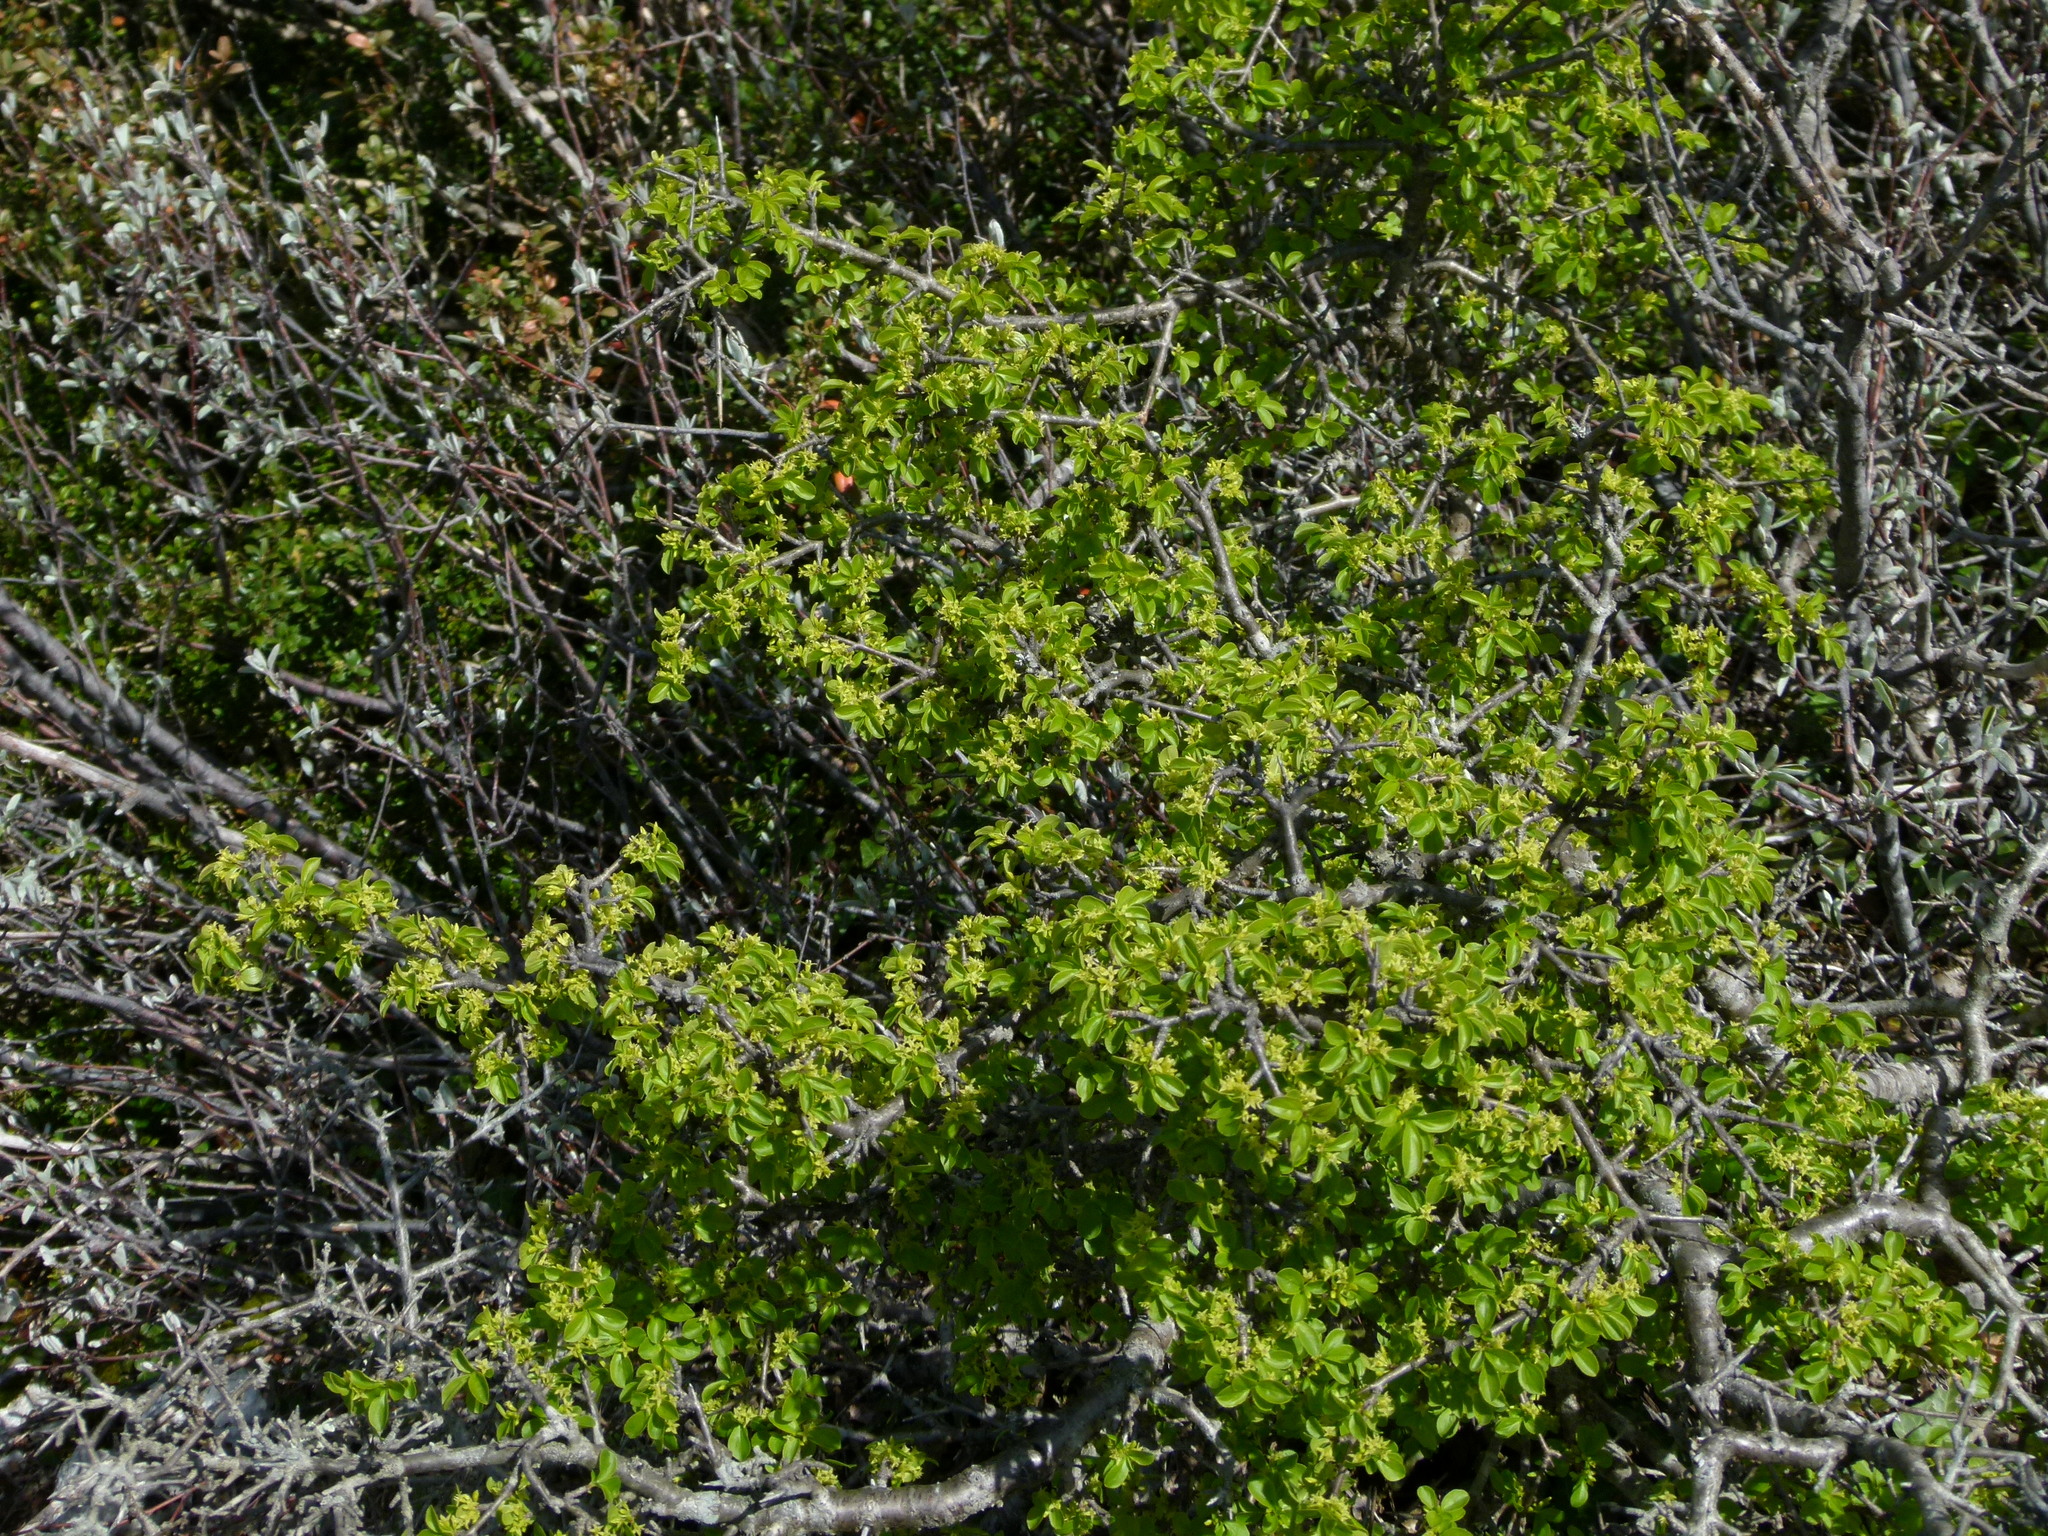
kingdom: Plantae
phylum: Tracheophyta
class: Magnoliopsida
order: Rosales
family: Rhamnaceae
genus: Rhamnus
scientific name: Rhamnus saxatilis
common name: Rock buckthorn
